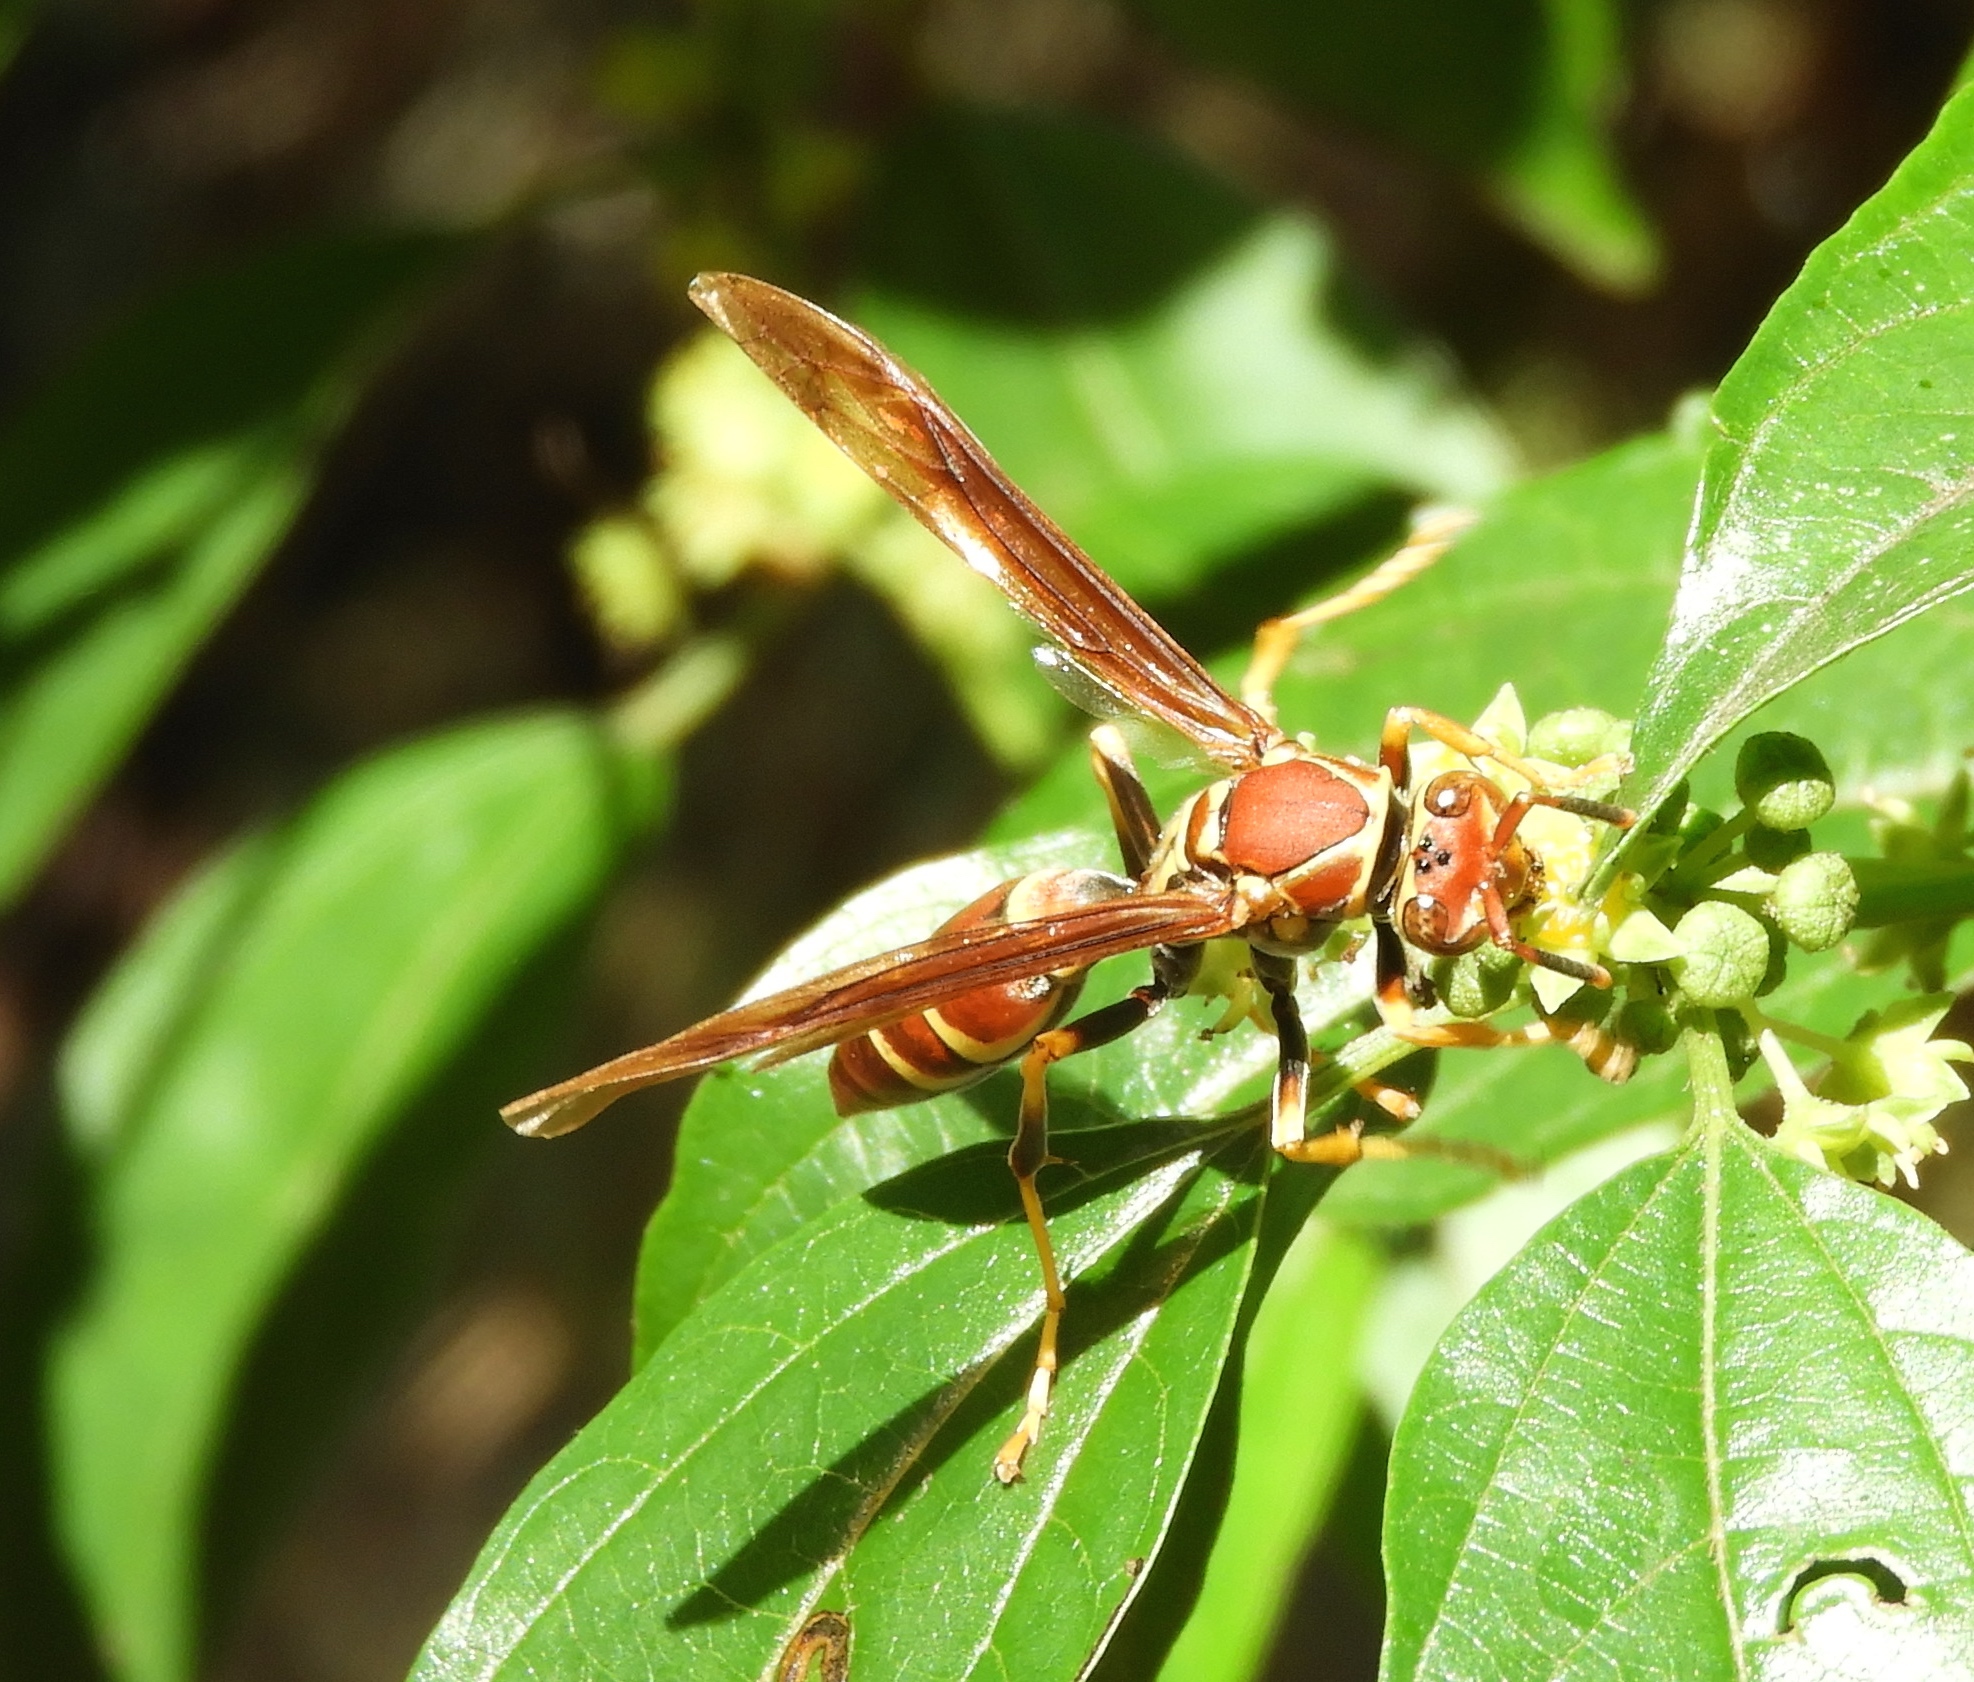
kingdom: Animalia
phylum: Arthropoda
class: Insecta
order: Hymenoptera
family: Pompilidae
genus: Aphanilopterus
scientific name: Aphanilopterus
